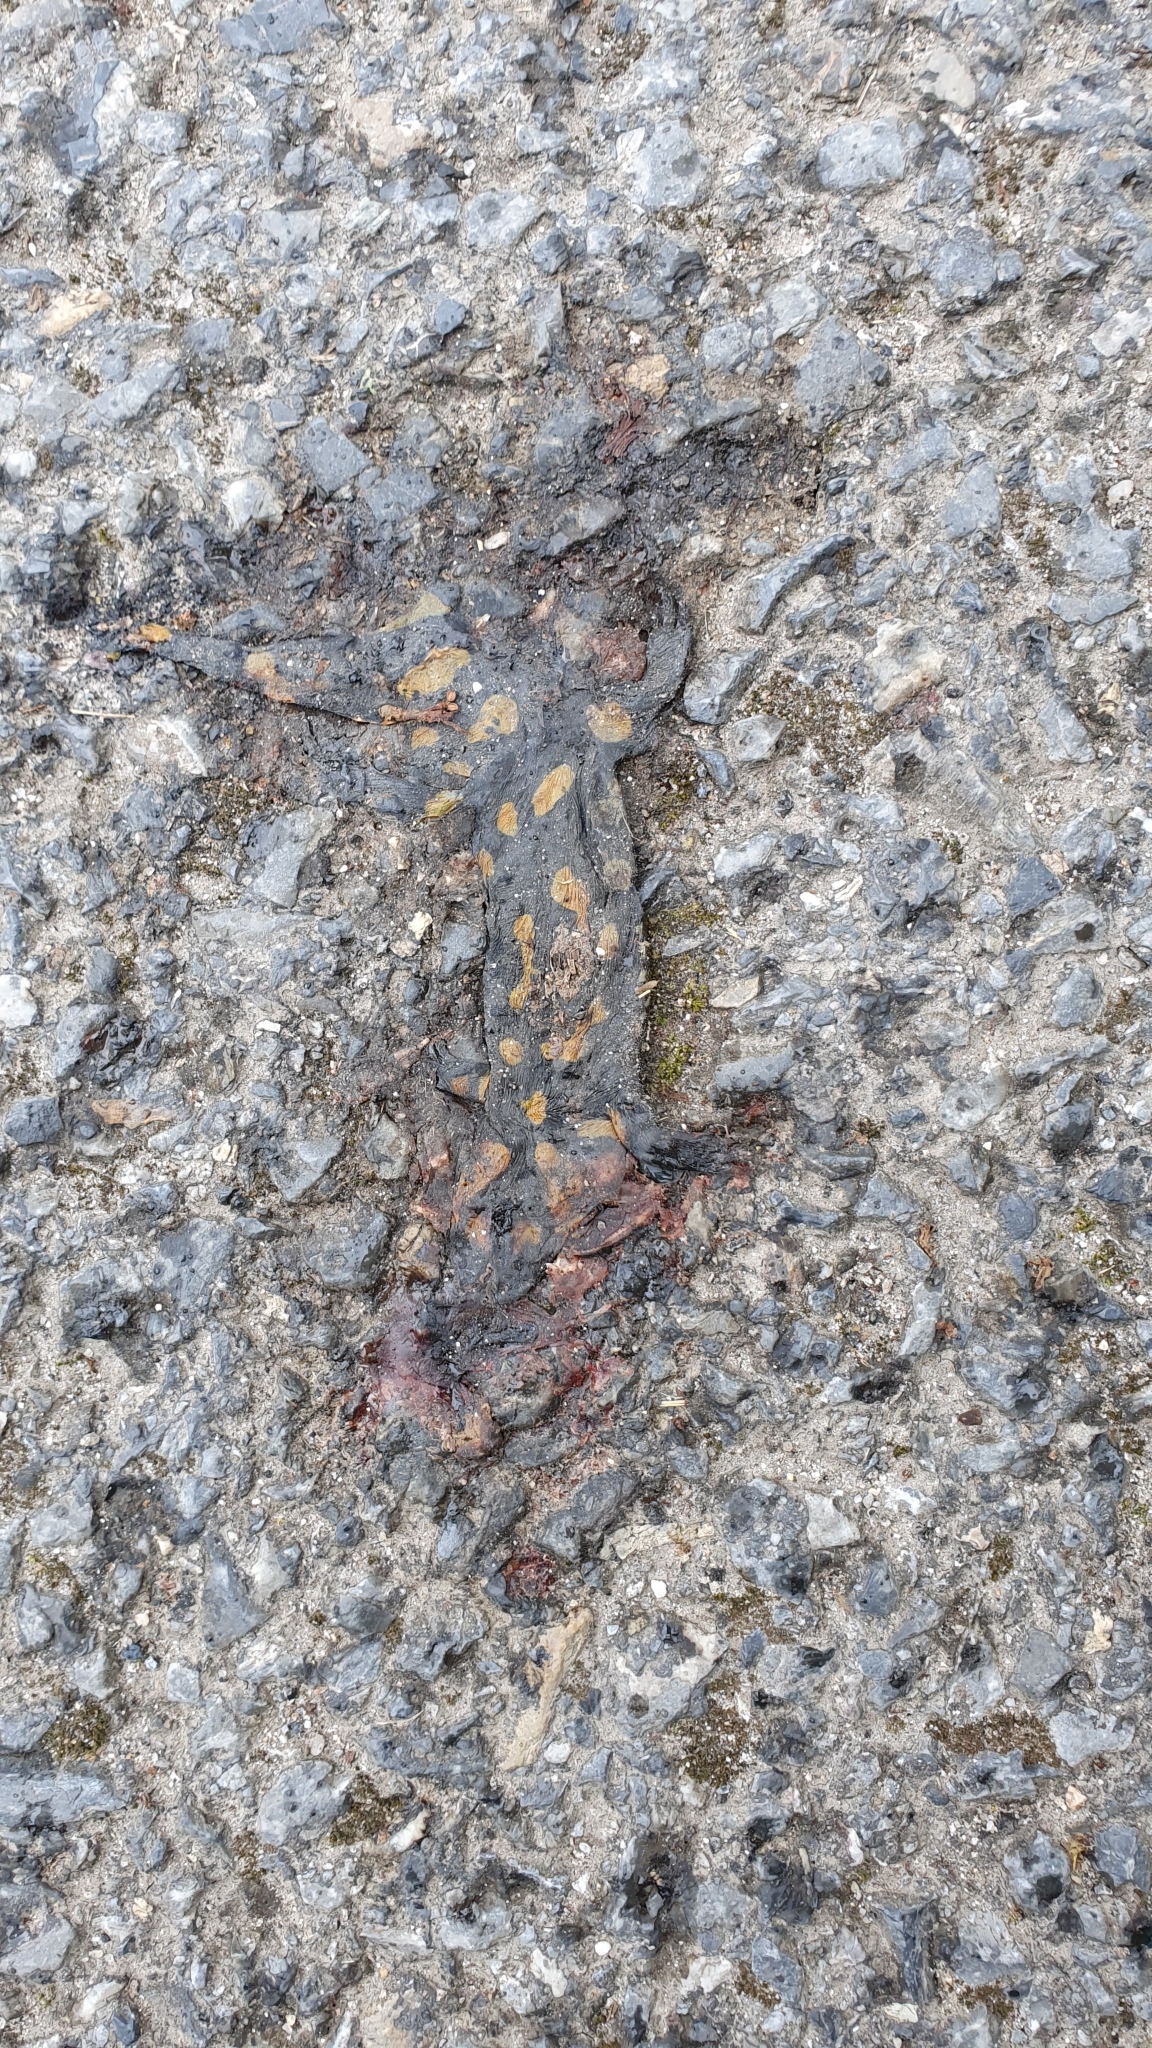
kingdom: Animalia
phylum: Chordata
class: Amphibia
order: Caudata
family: Salamandridae
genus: Salamandra
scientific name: Salamandra salamandra
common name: Fire salamander
